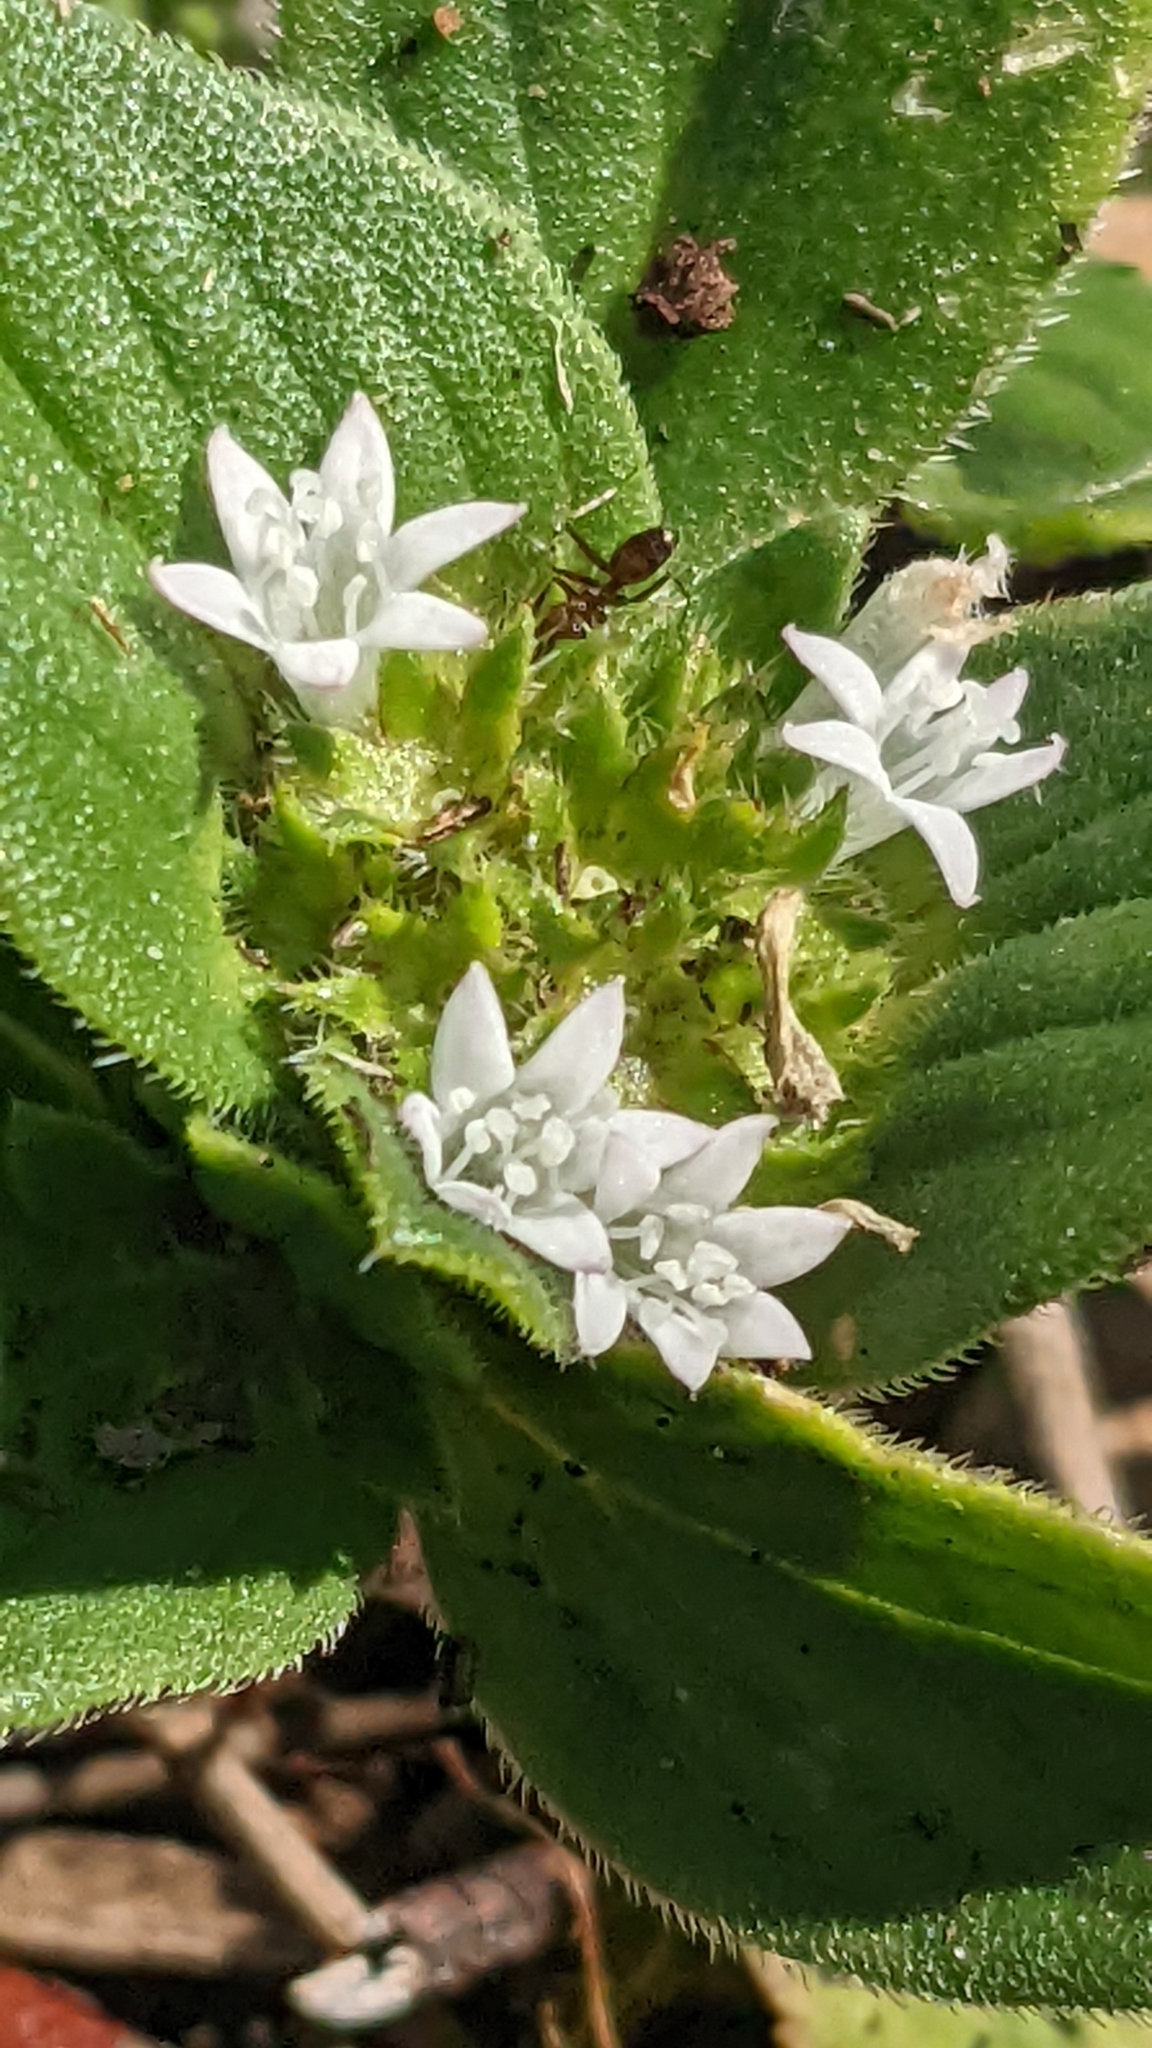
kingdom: Plantae
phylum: Tracheophyta
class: Magnoliopsida
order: Gentianales
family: Rubiaceae
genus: Richardia
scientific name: Richardia scabra
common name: Rough mexican clover
